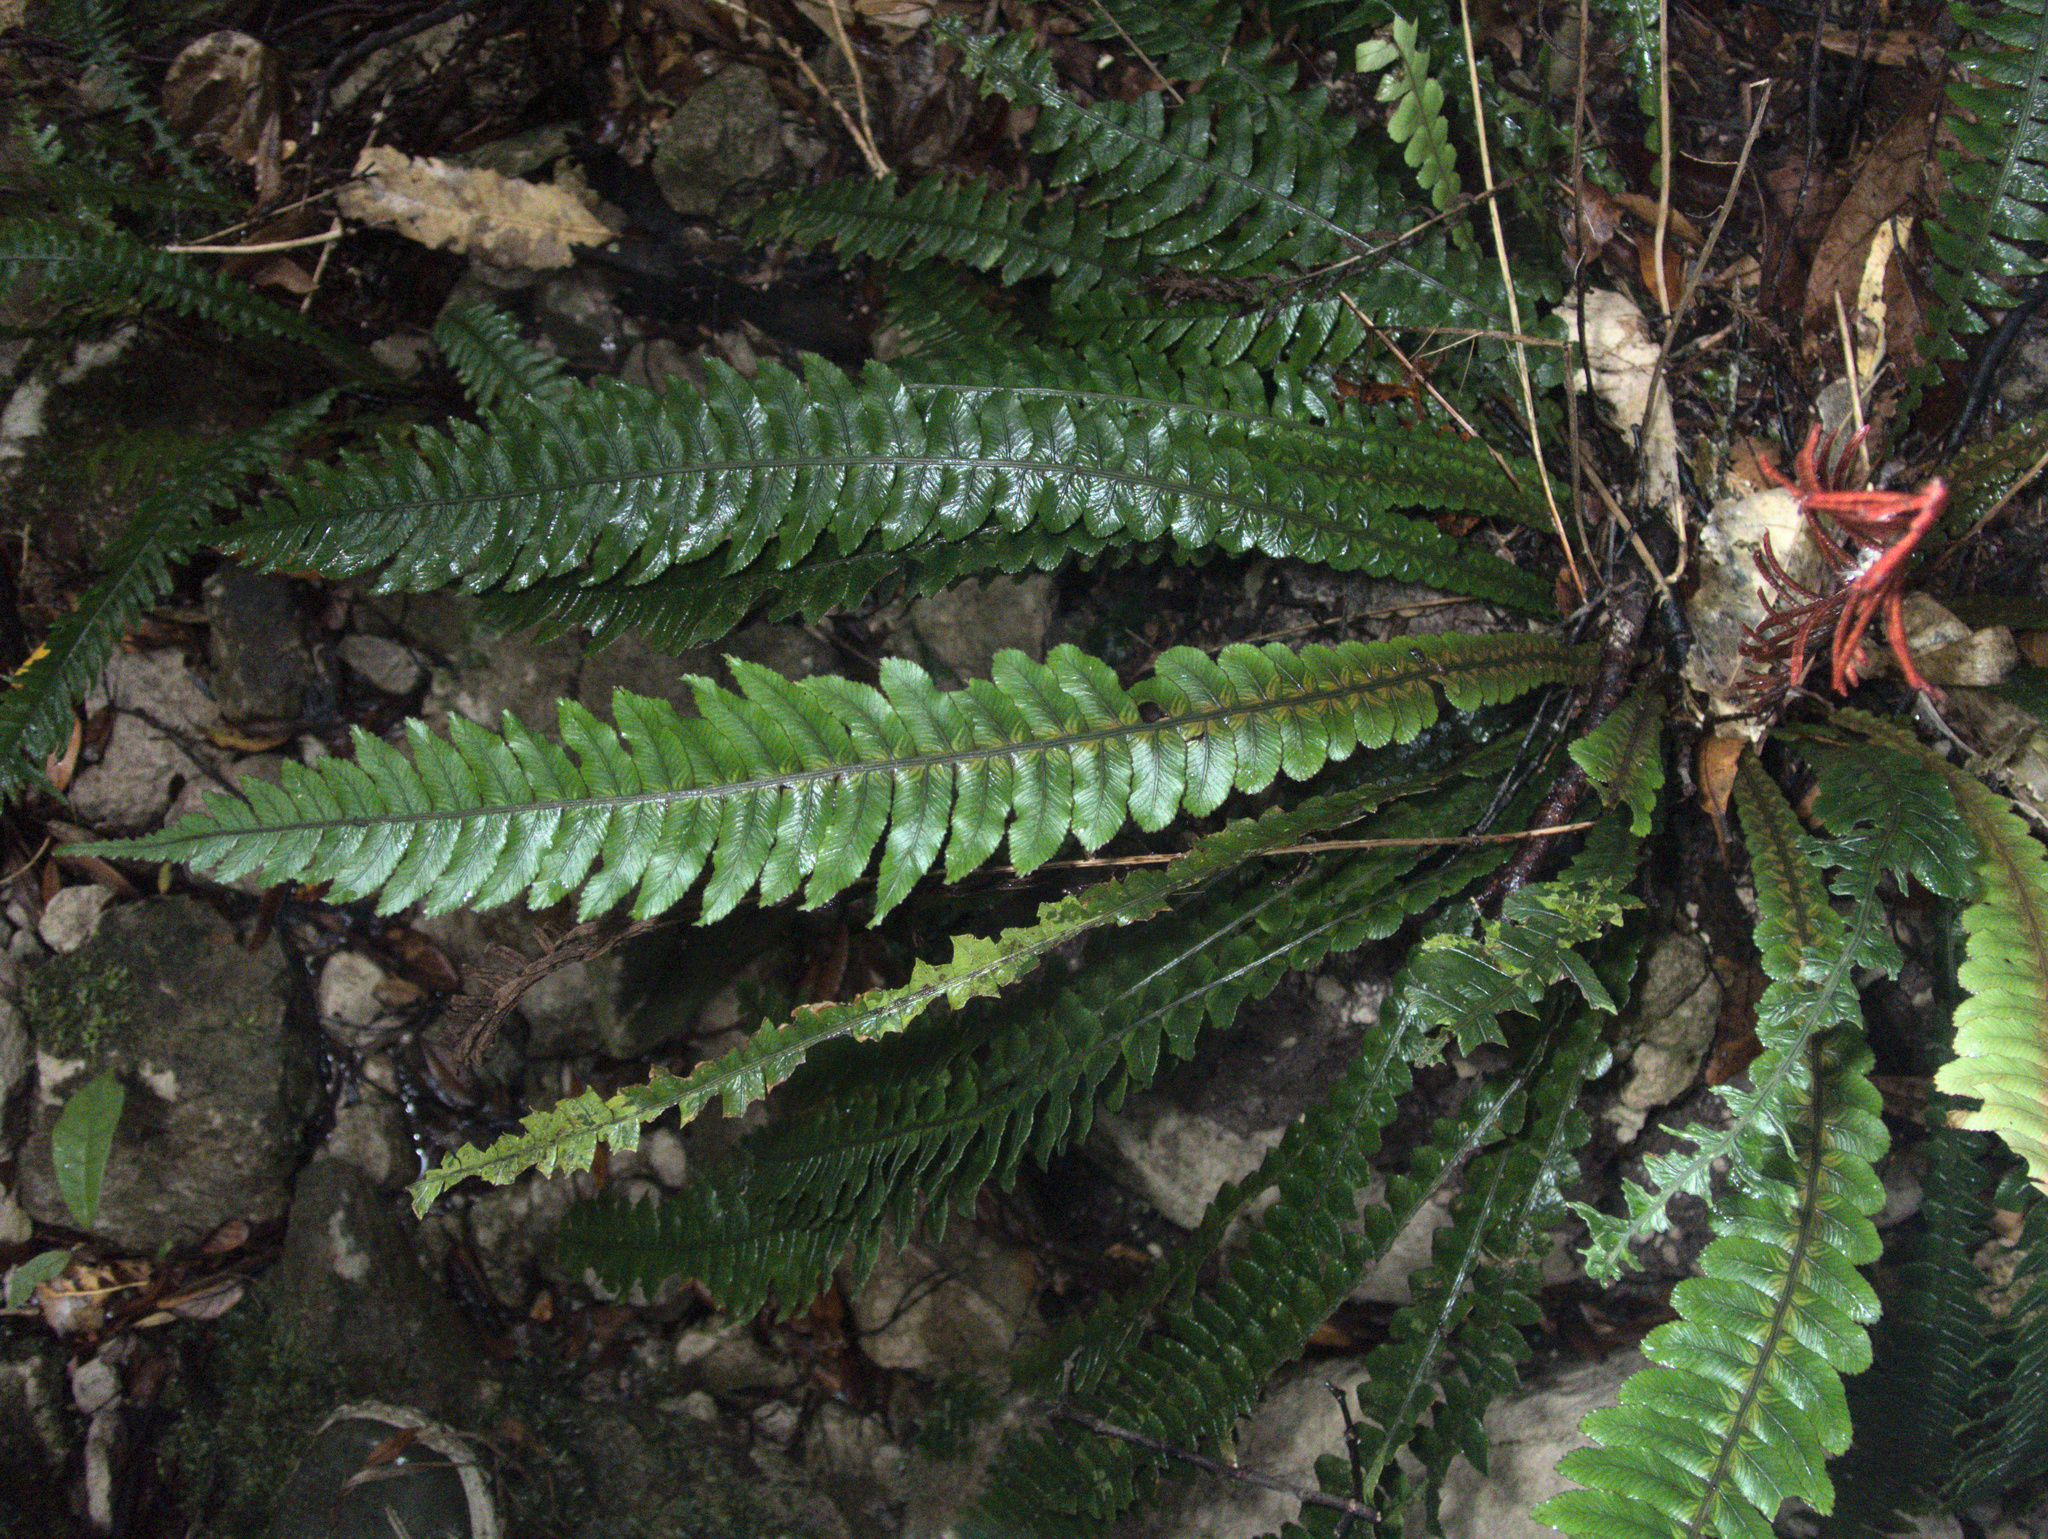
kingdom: Plantae
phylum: Tracheophyta
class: Polypodiopsida
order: Polypodiales
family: Blechnaceae
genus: Austroblechnum
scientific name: Austroblechnum lanceolatum
